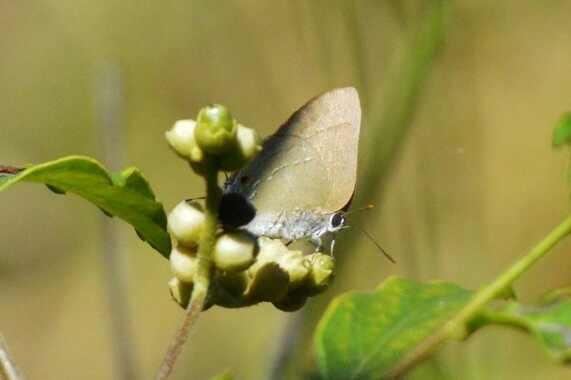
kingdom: Animalia
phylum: Arthropoda
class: Insecta
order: Lepidoptera
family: Lycaenidae
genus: Thecla
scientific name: Thecla strophius
